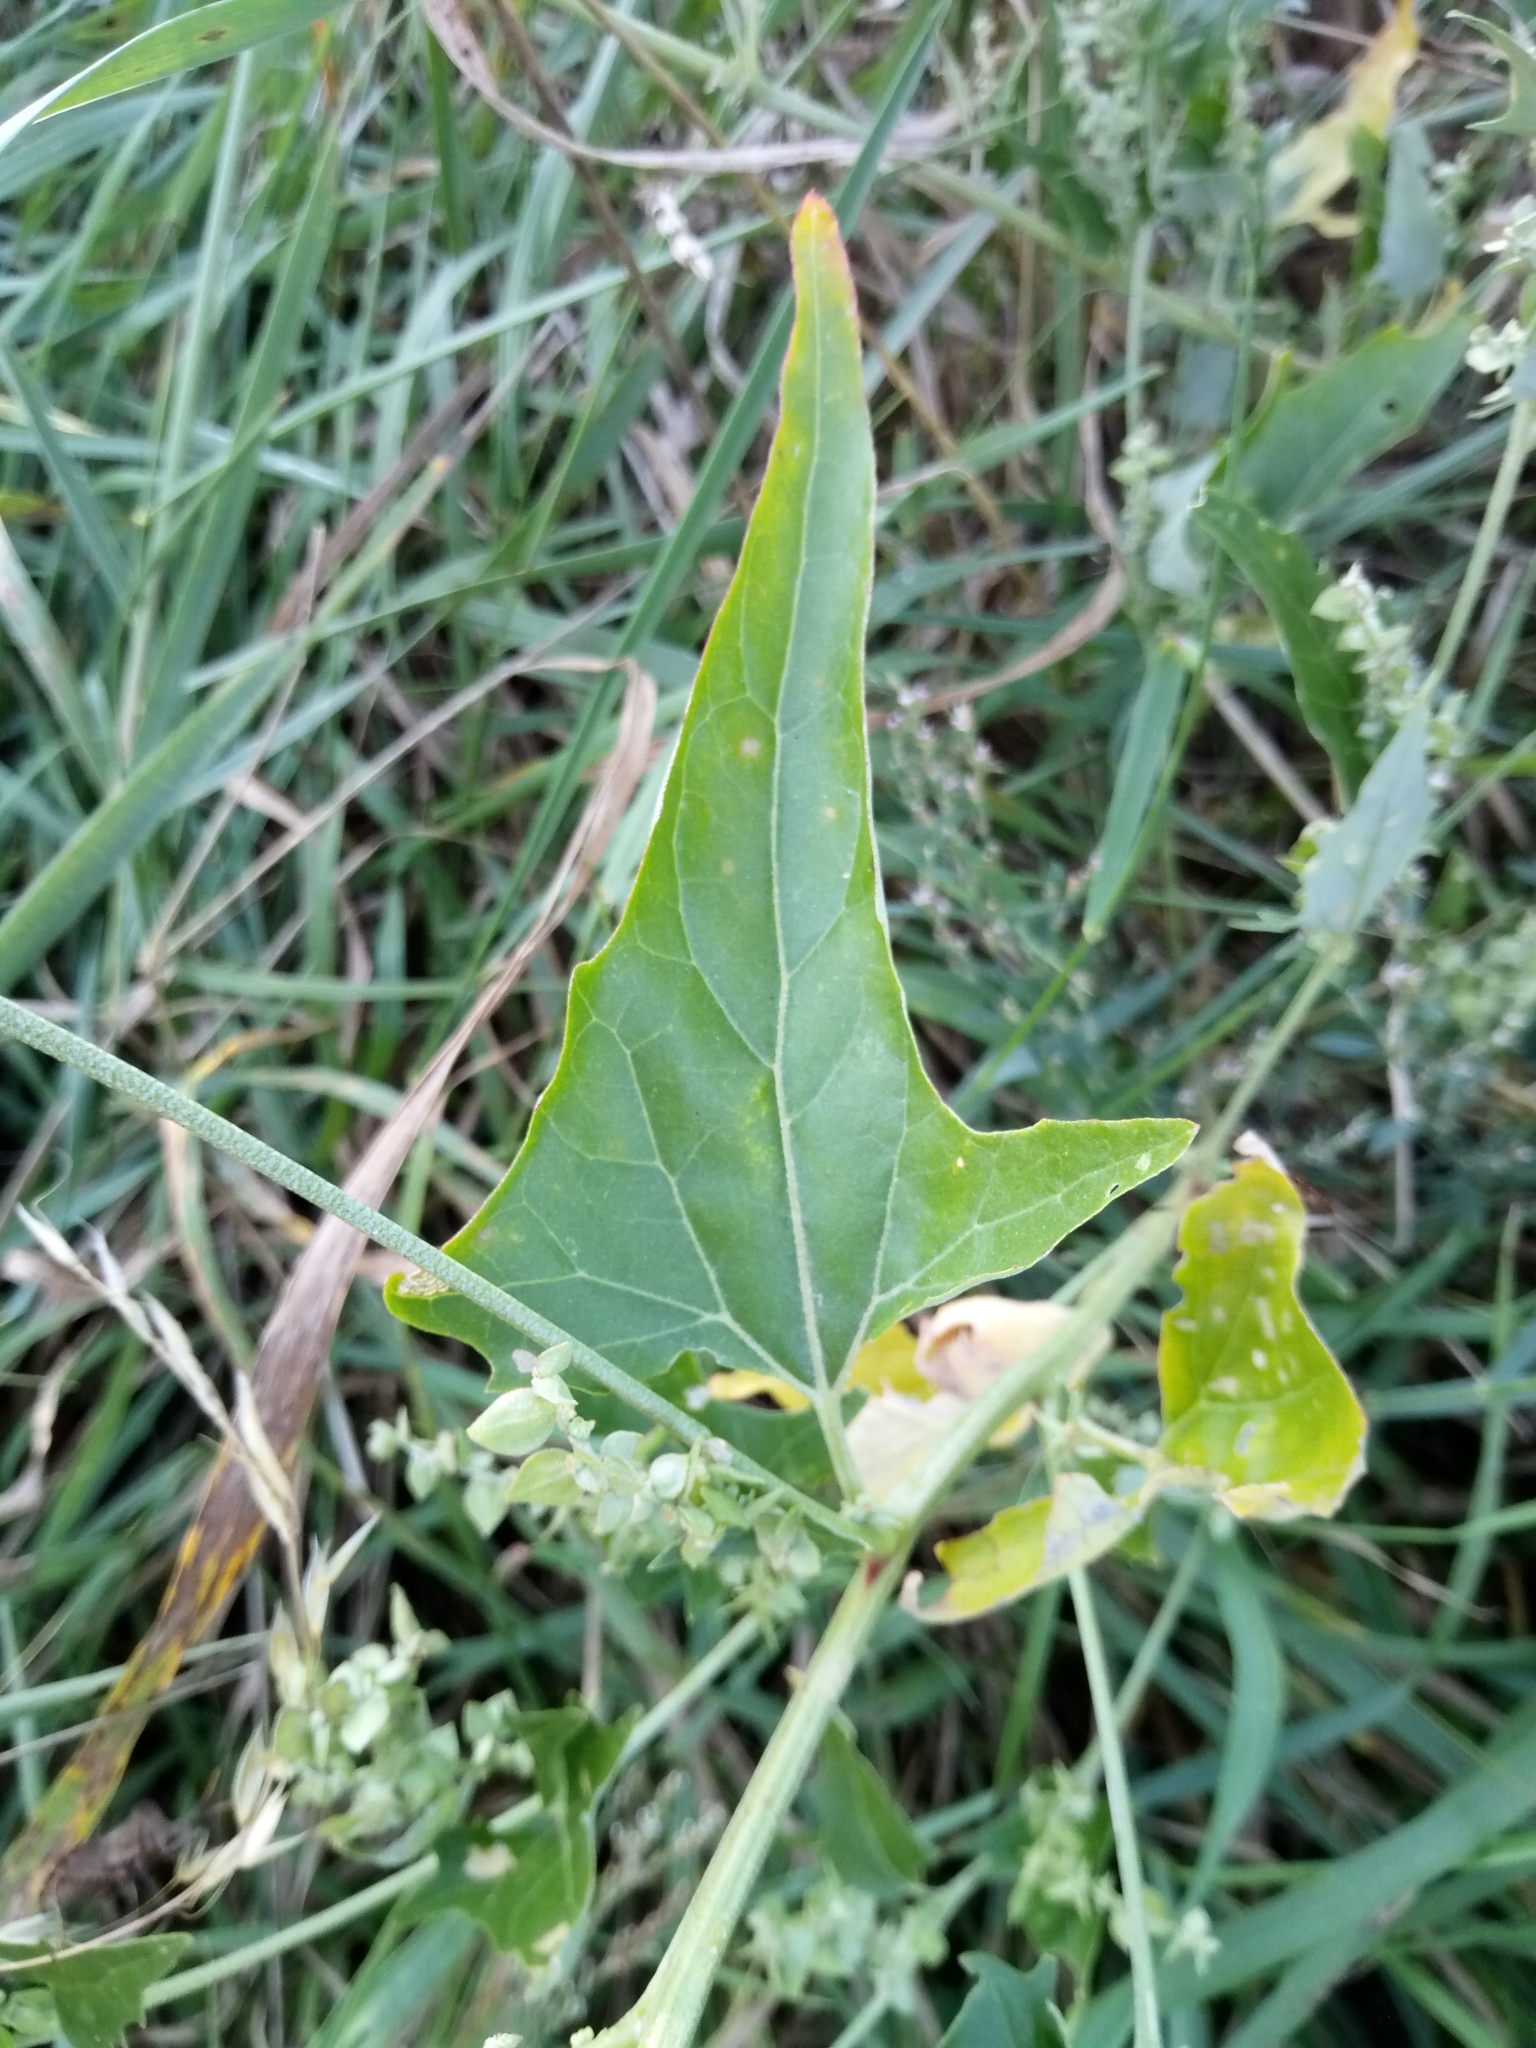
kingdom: Plantae
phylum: Tracheophyta
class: Magnoliopsida
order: Caryophyllales
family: Amaranthaceae
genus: Atriplex
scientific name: Atriplex sagittata
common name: Purple orache
